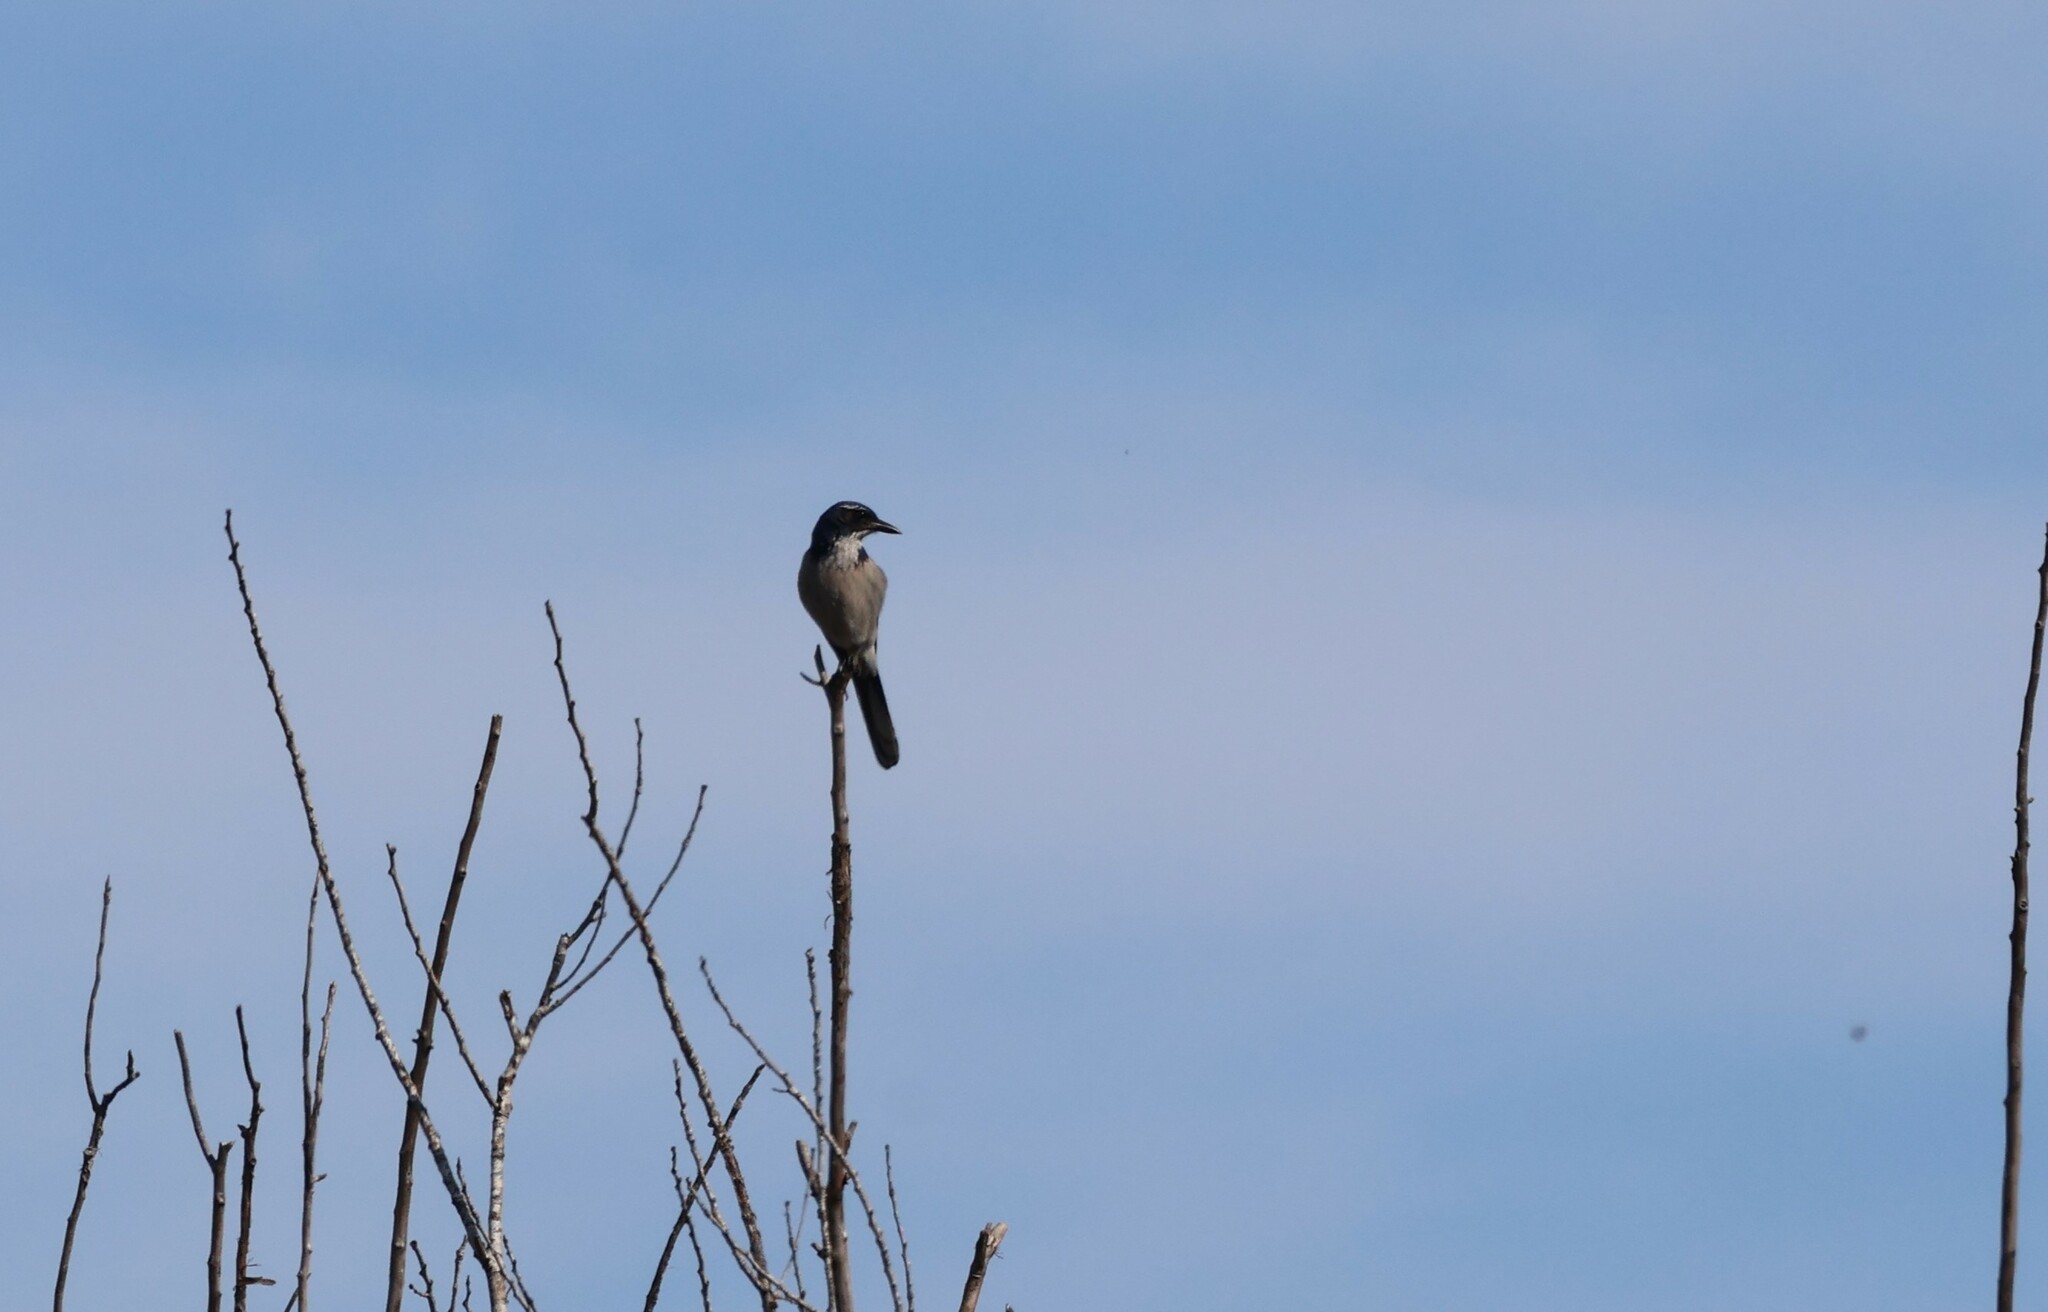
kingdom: Animalia
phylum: Chordata
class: Aves
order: Passeriformes
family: Corvidae
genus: Aphelocoma
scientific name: Aphelocoma californica
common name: California scrub-jay
